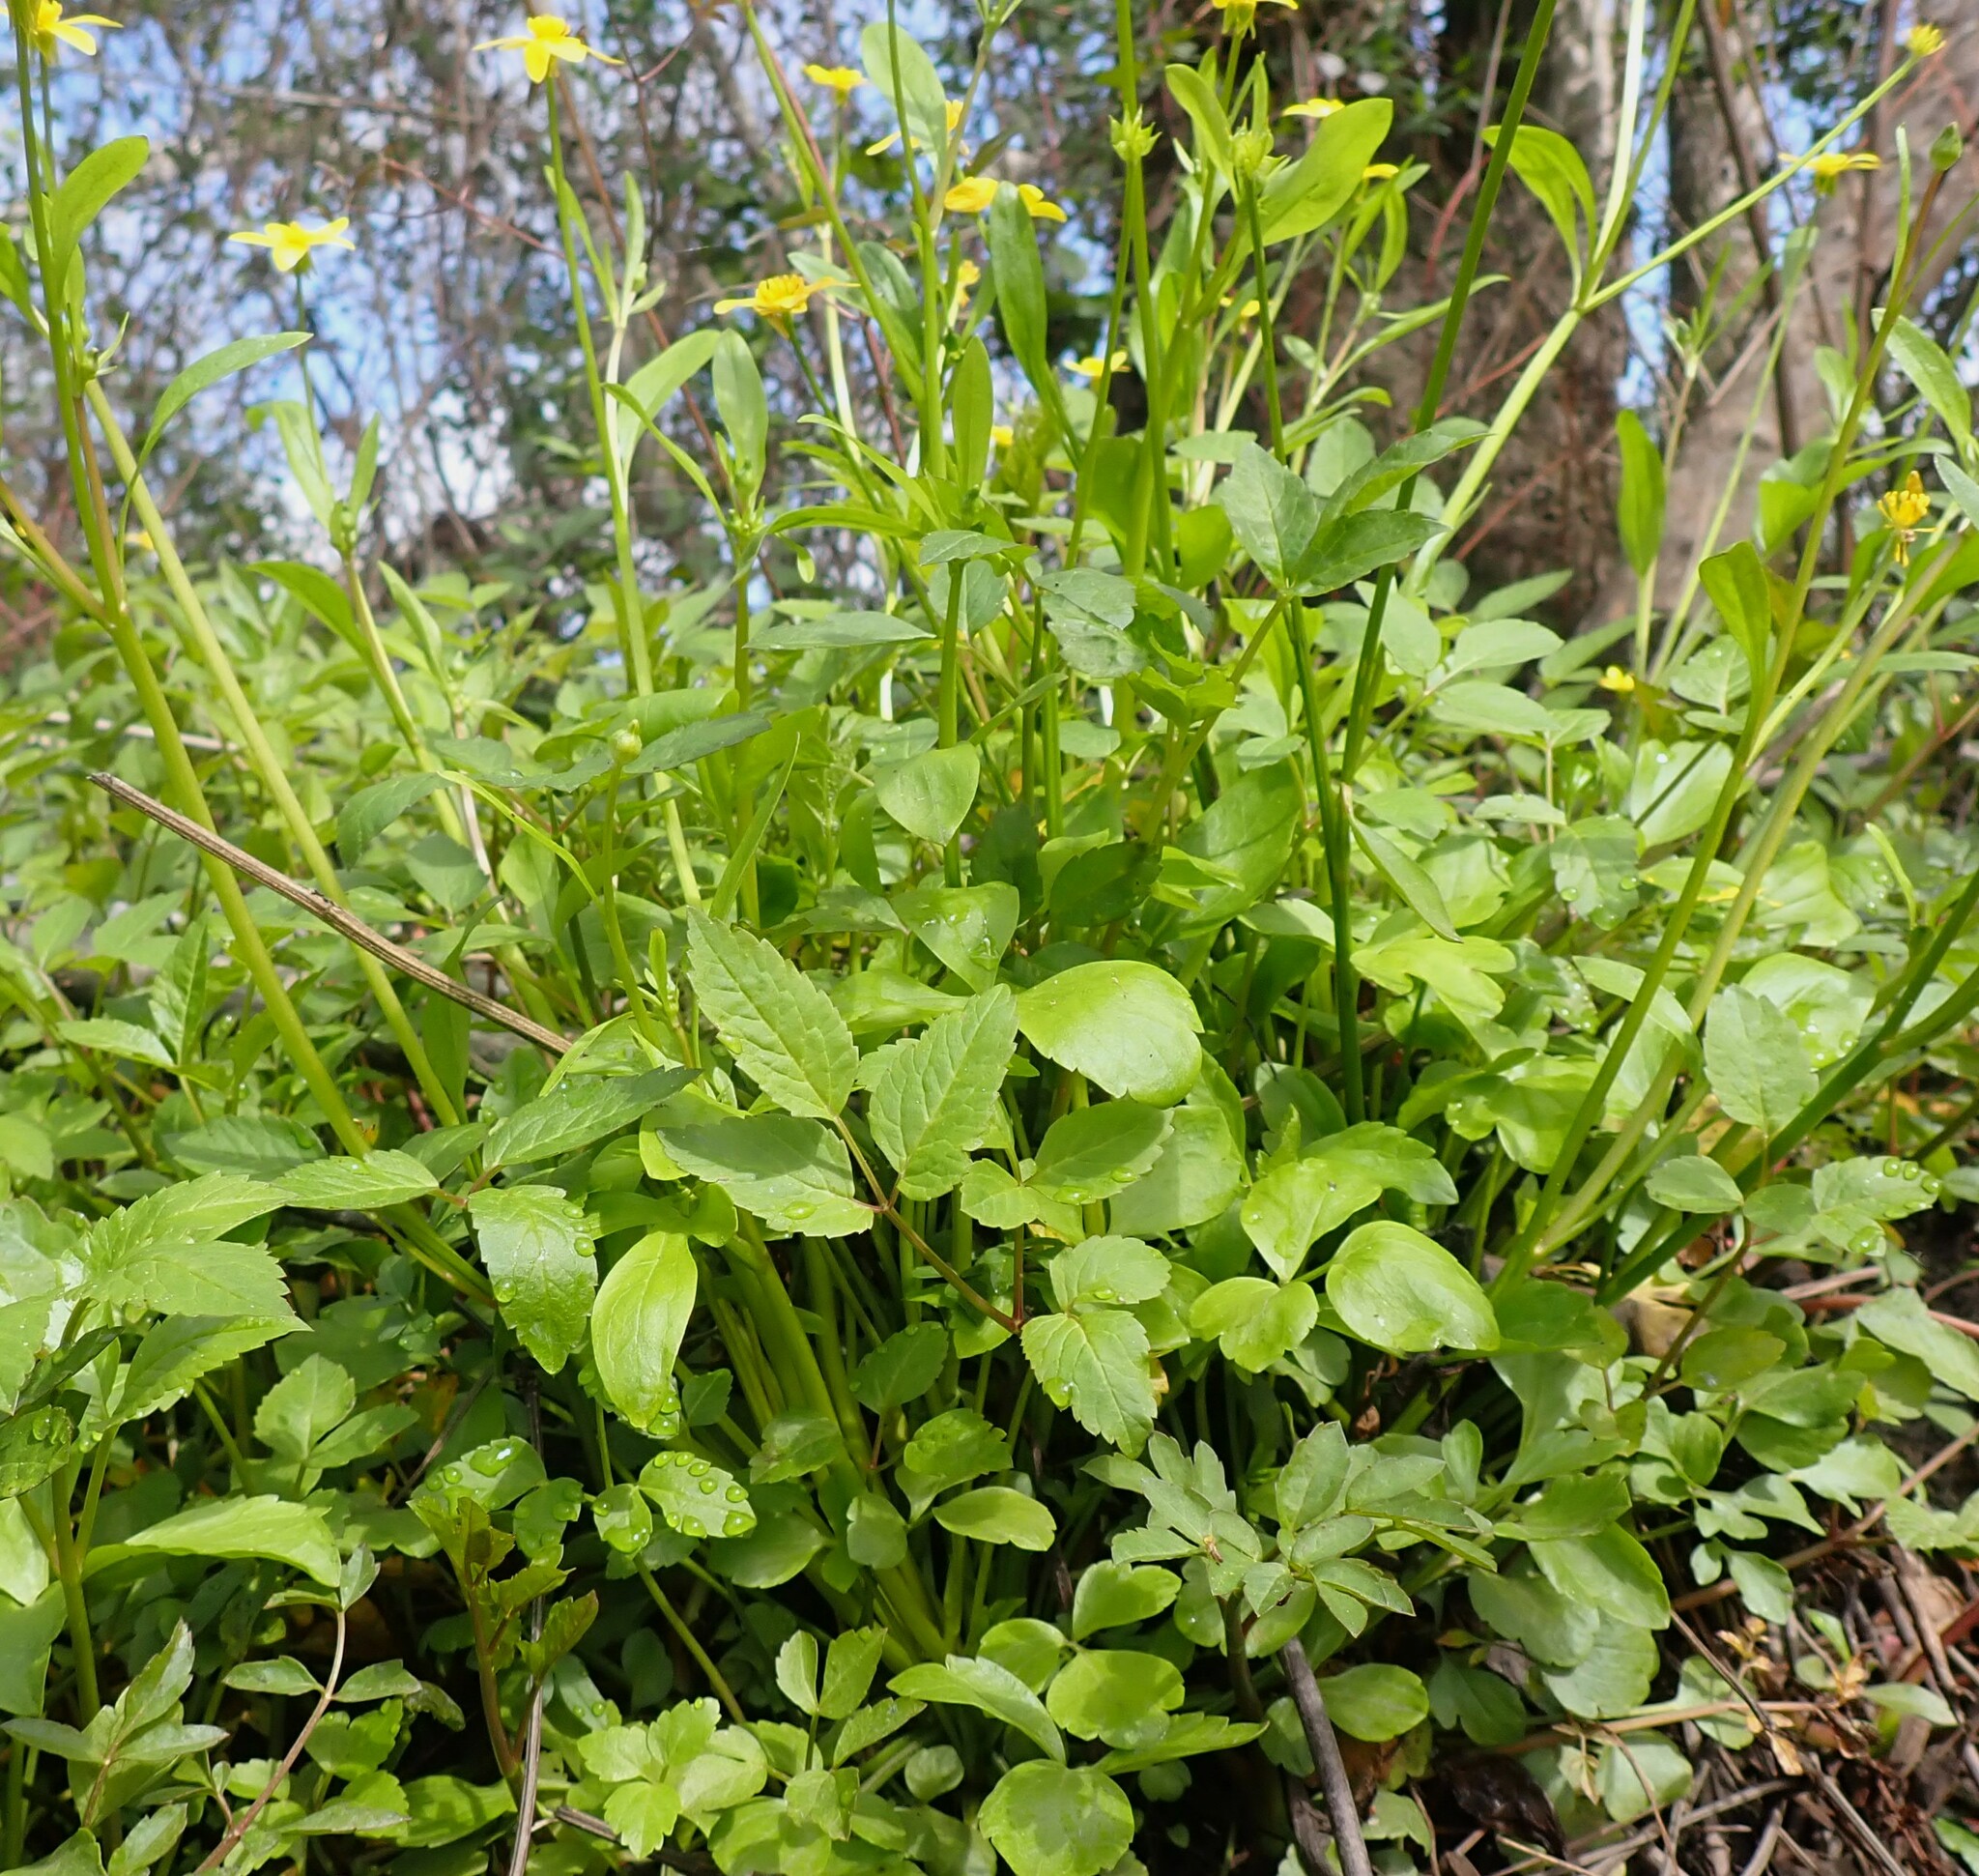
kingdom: Plantae
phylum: Tracheophyta
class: Magnoliopsida
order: Ranunculales
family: Ranunculaceae
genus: Ranunculus
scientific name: Ranunculus hispidus
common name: Bristly buttercup
